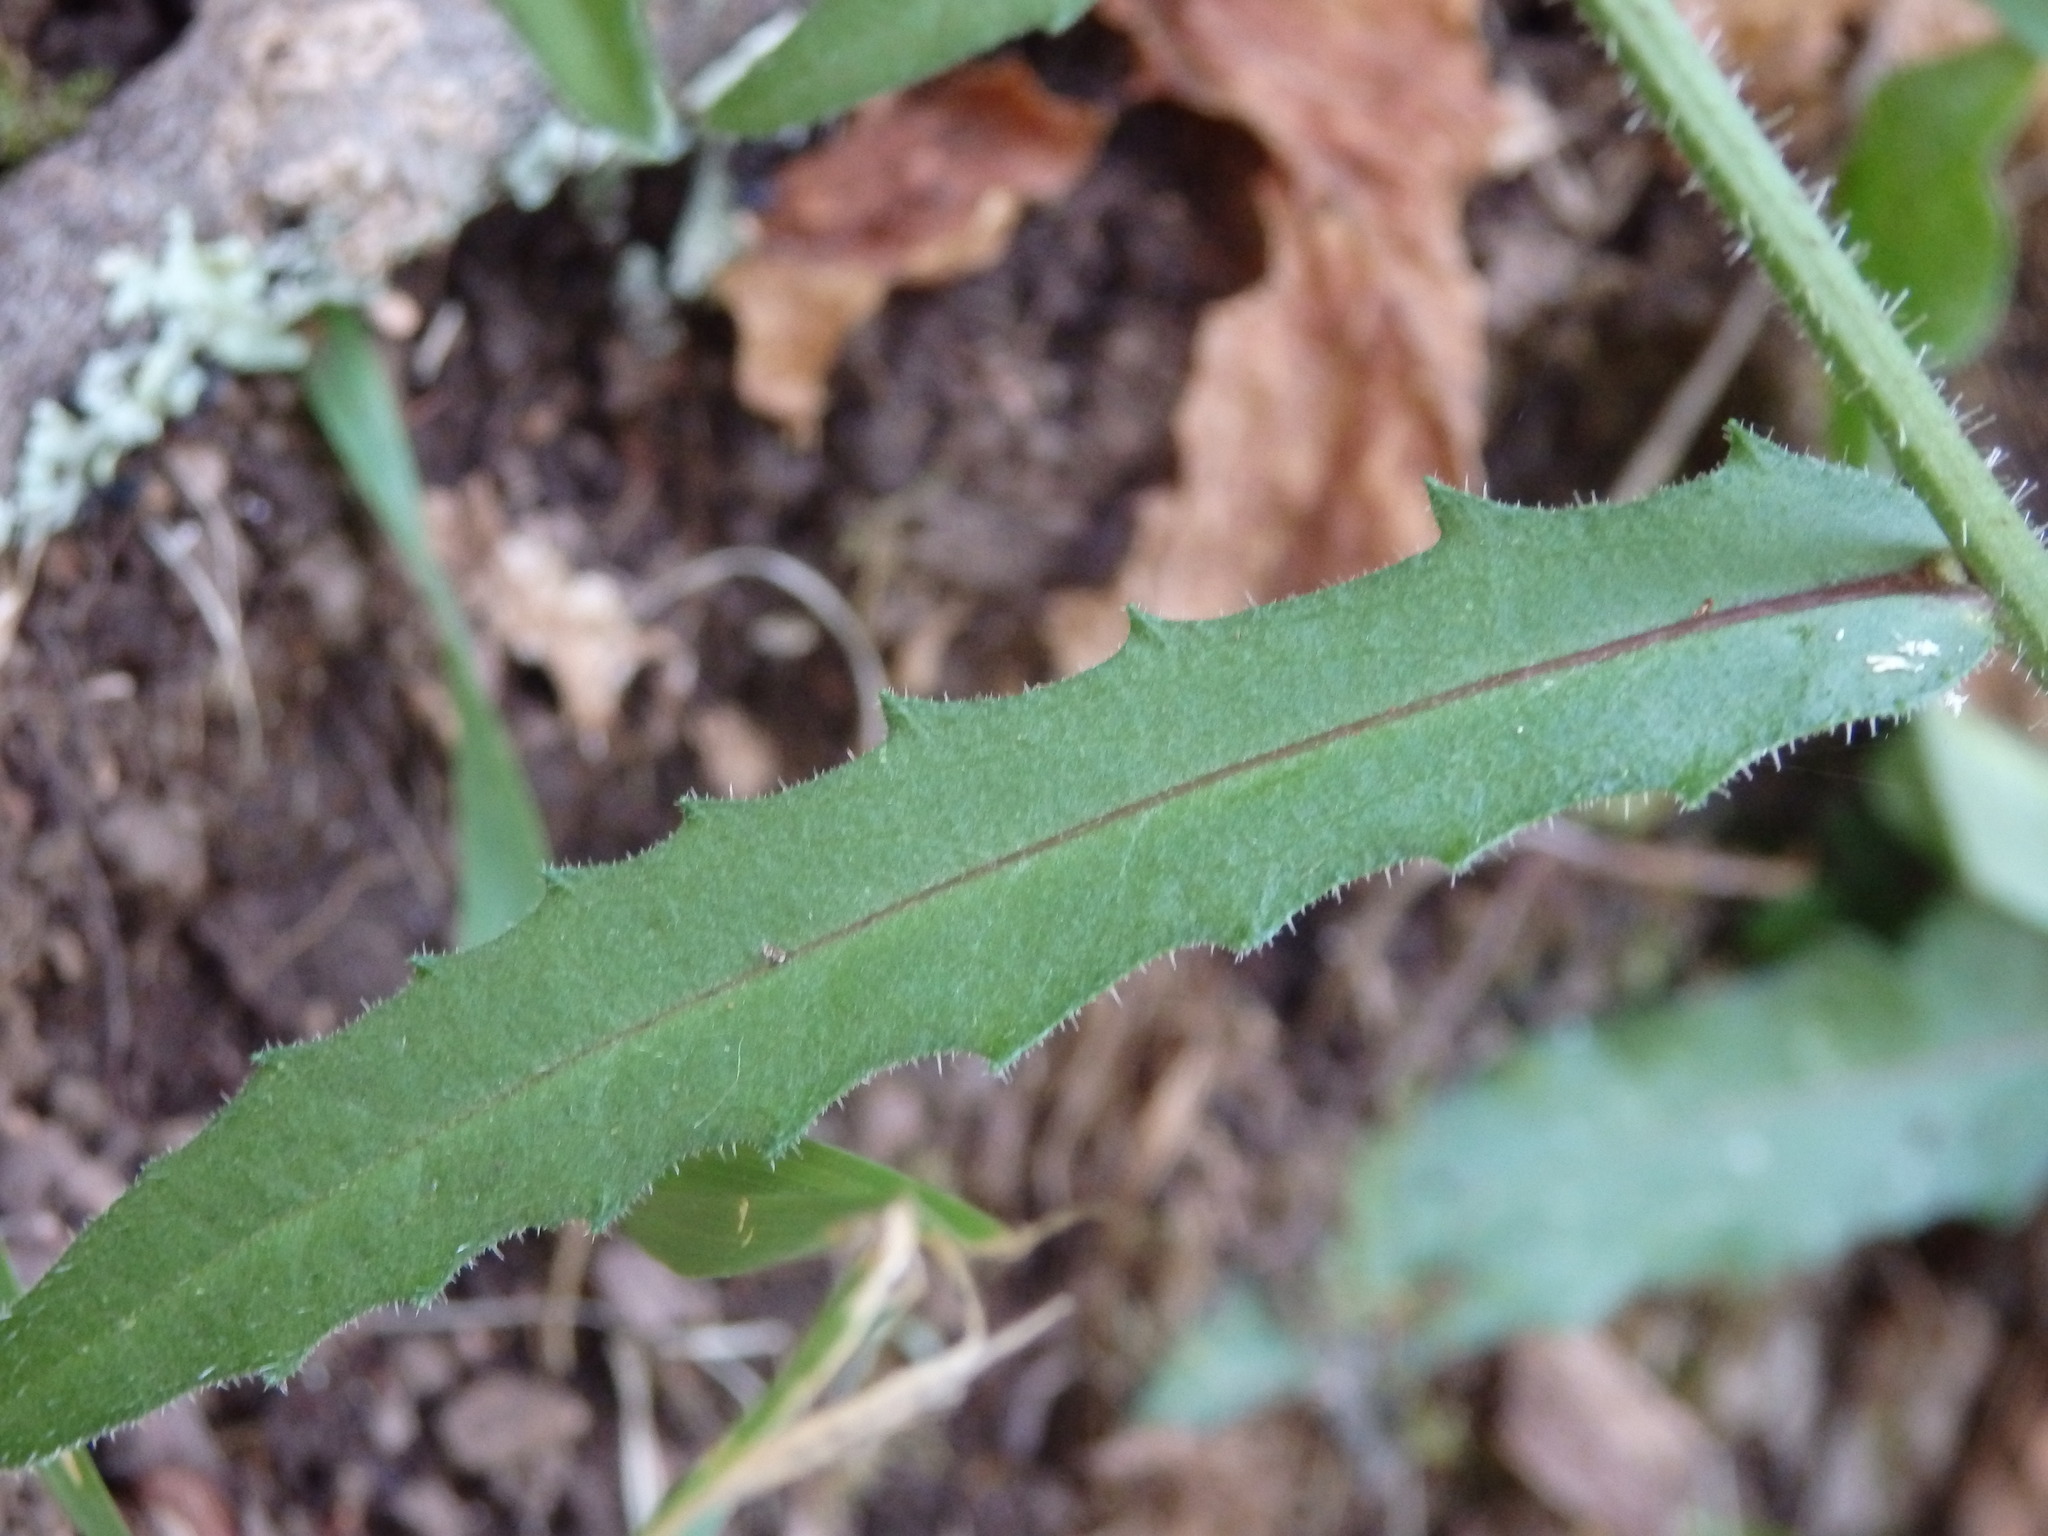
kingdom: Plantae
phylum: Tracheophyta
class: Magnoliopsida
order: Asterales
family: Asteraceae
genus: Picris
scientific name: Picris hieracioides
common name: Hawkweed oxtongue
